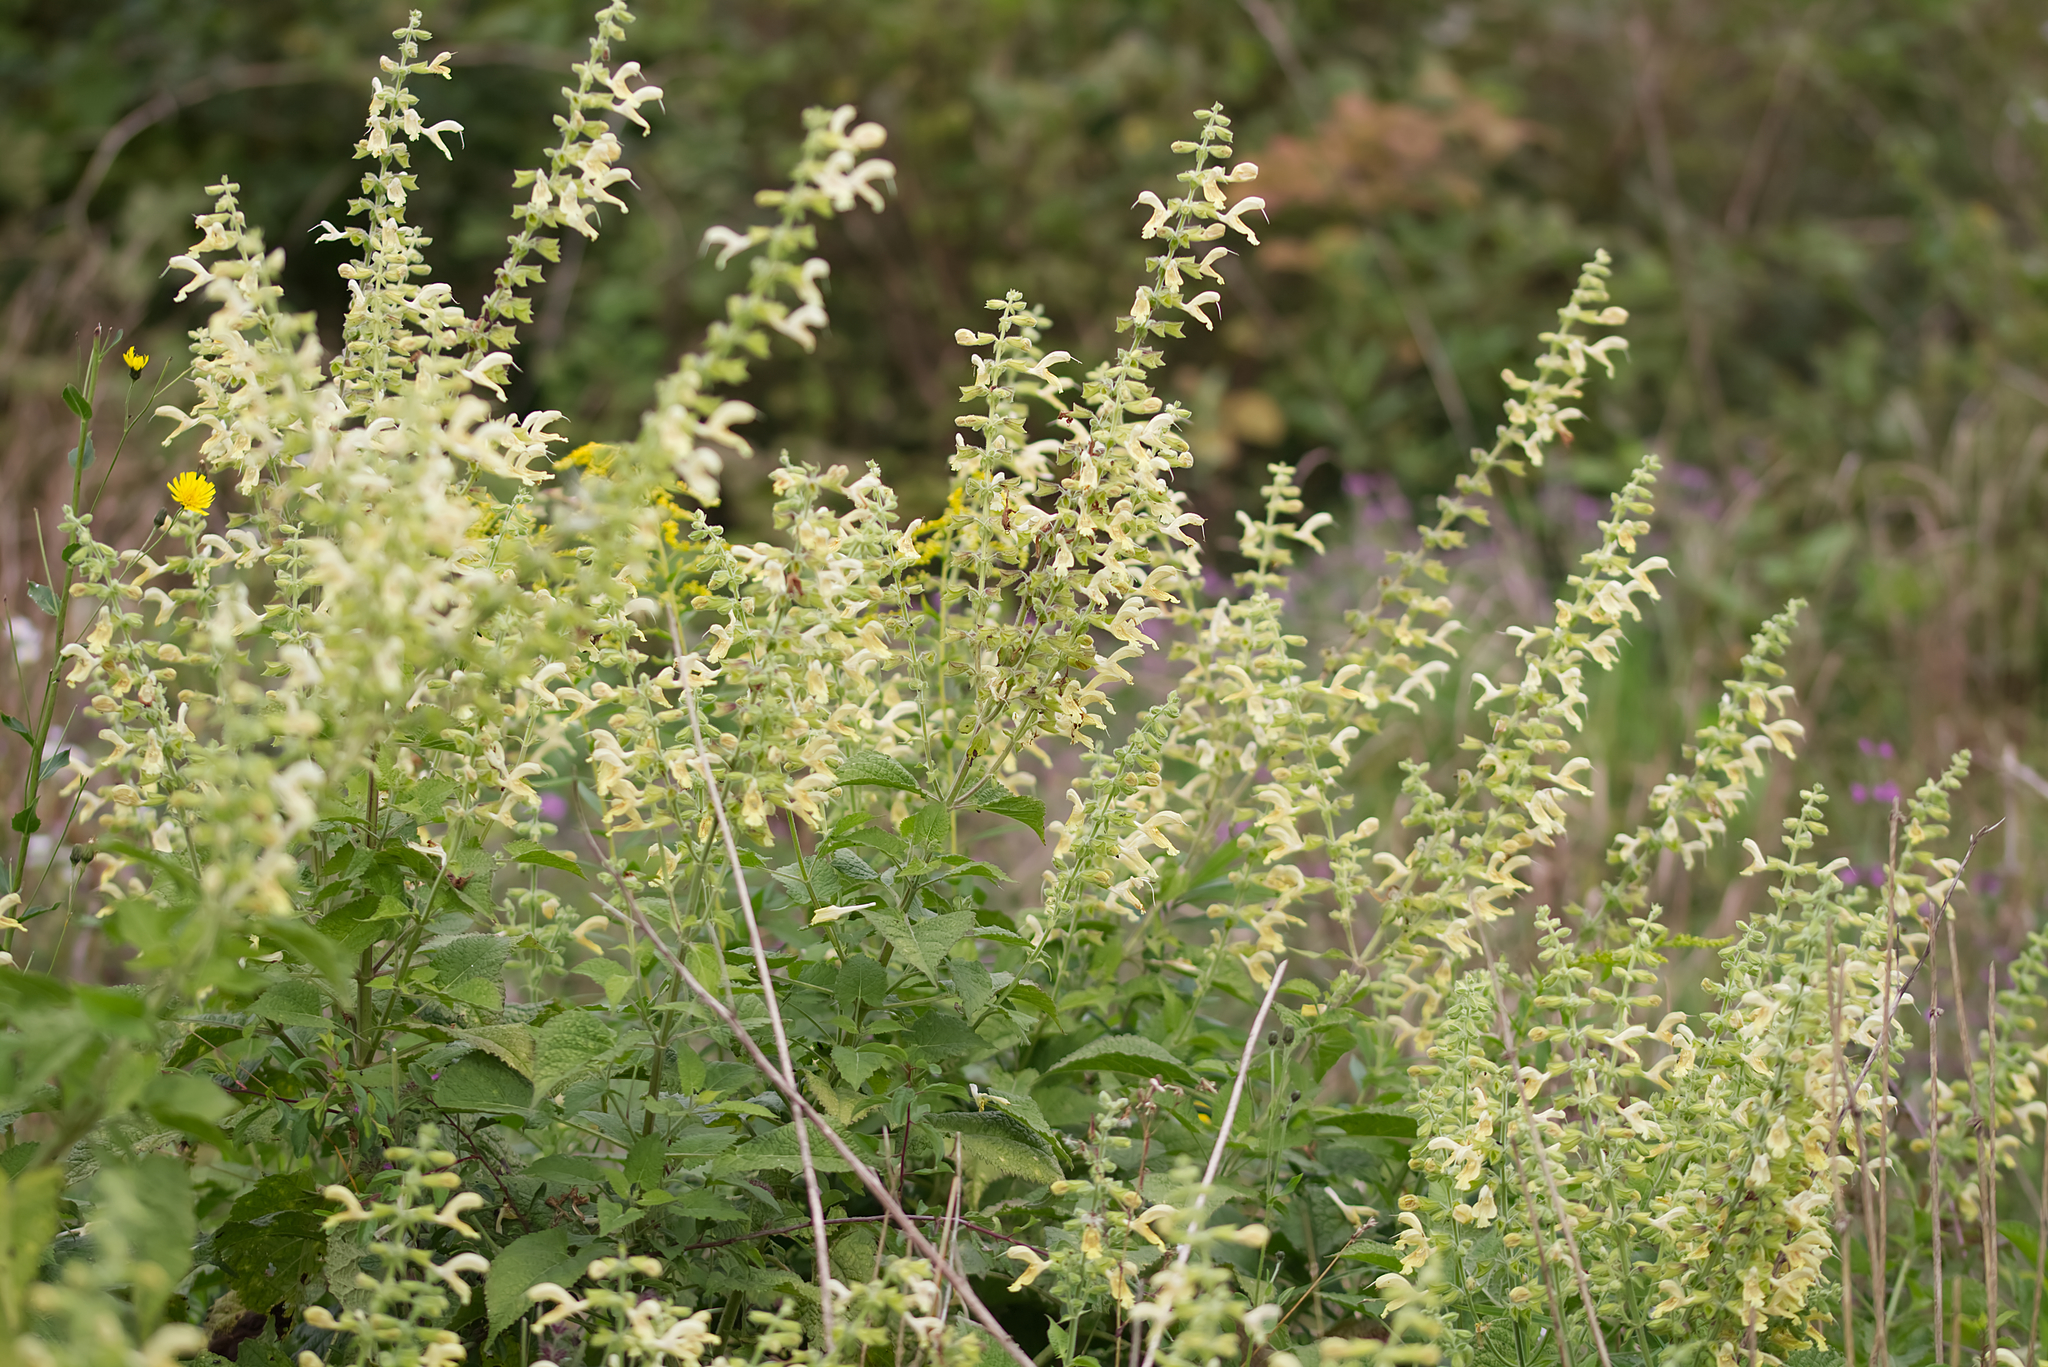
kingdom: Plantae
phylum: Tracheophyta
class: Magnoliopsida
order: Lamiales
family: Lamiaceae
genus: Salvia
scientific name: Salvia glutinosa
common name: Sticky clary
